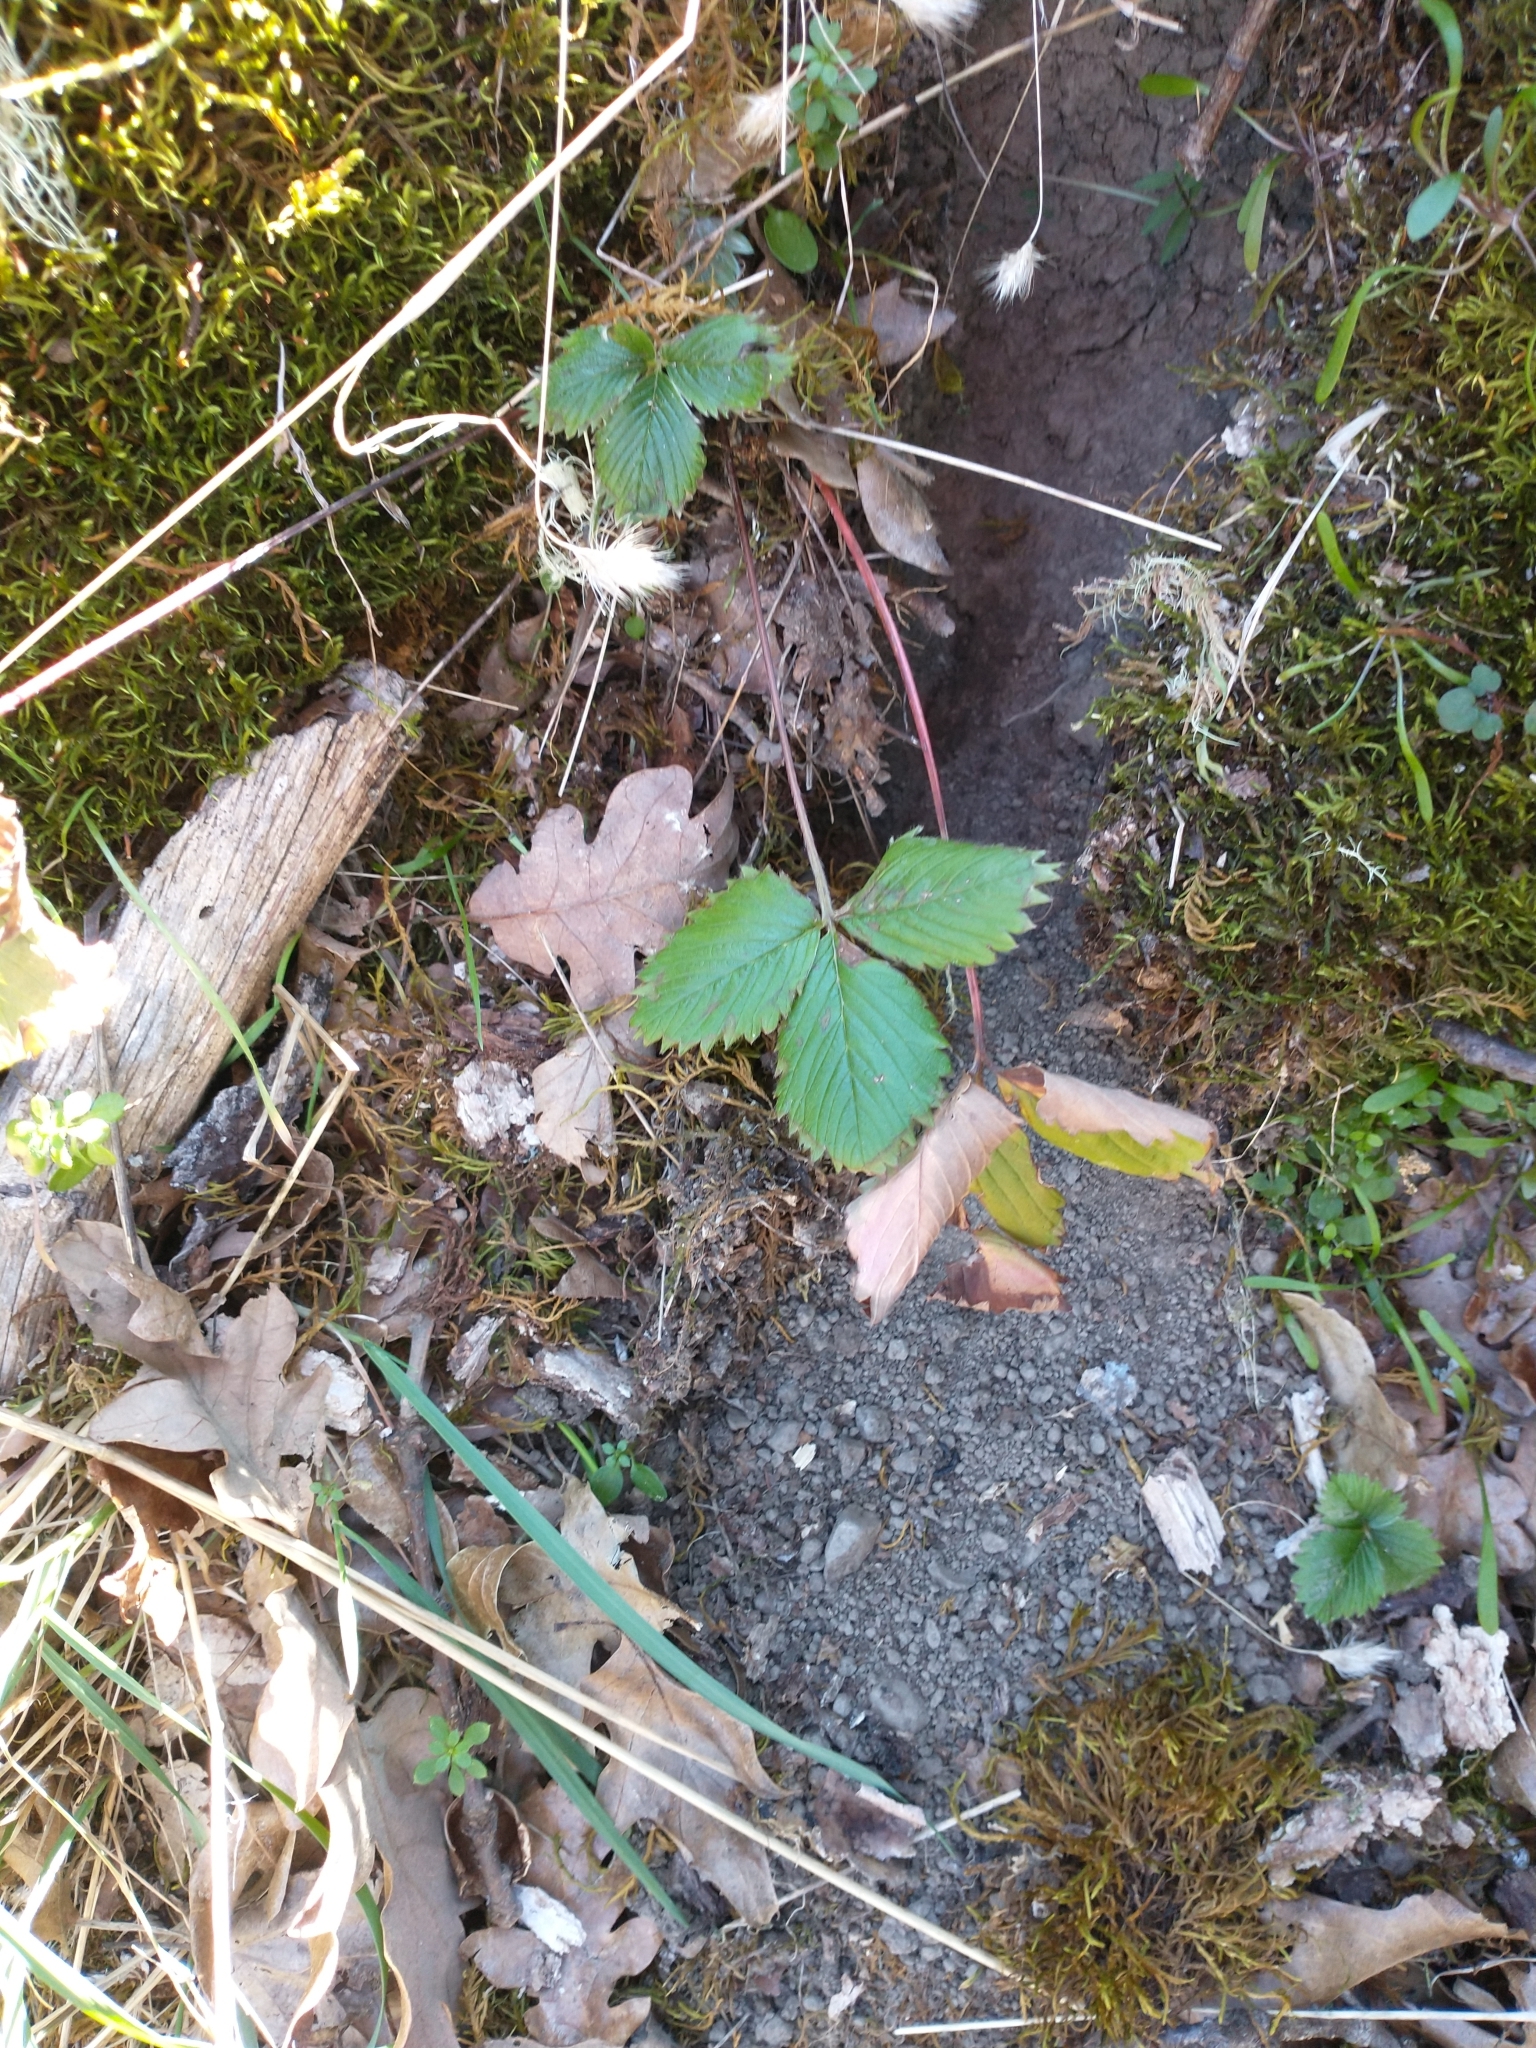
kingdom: Plantae
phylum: Tracheophyta
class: Magnoliopsida
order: Rosales
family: Rosaceae
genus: Fragaria
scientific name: Fragaria vesca
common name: Wild strawberry
